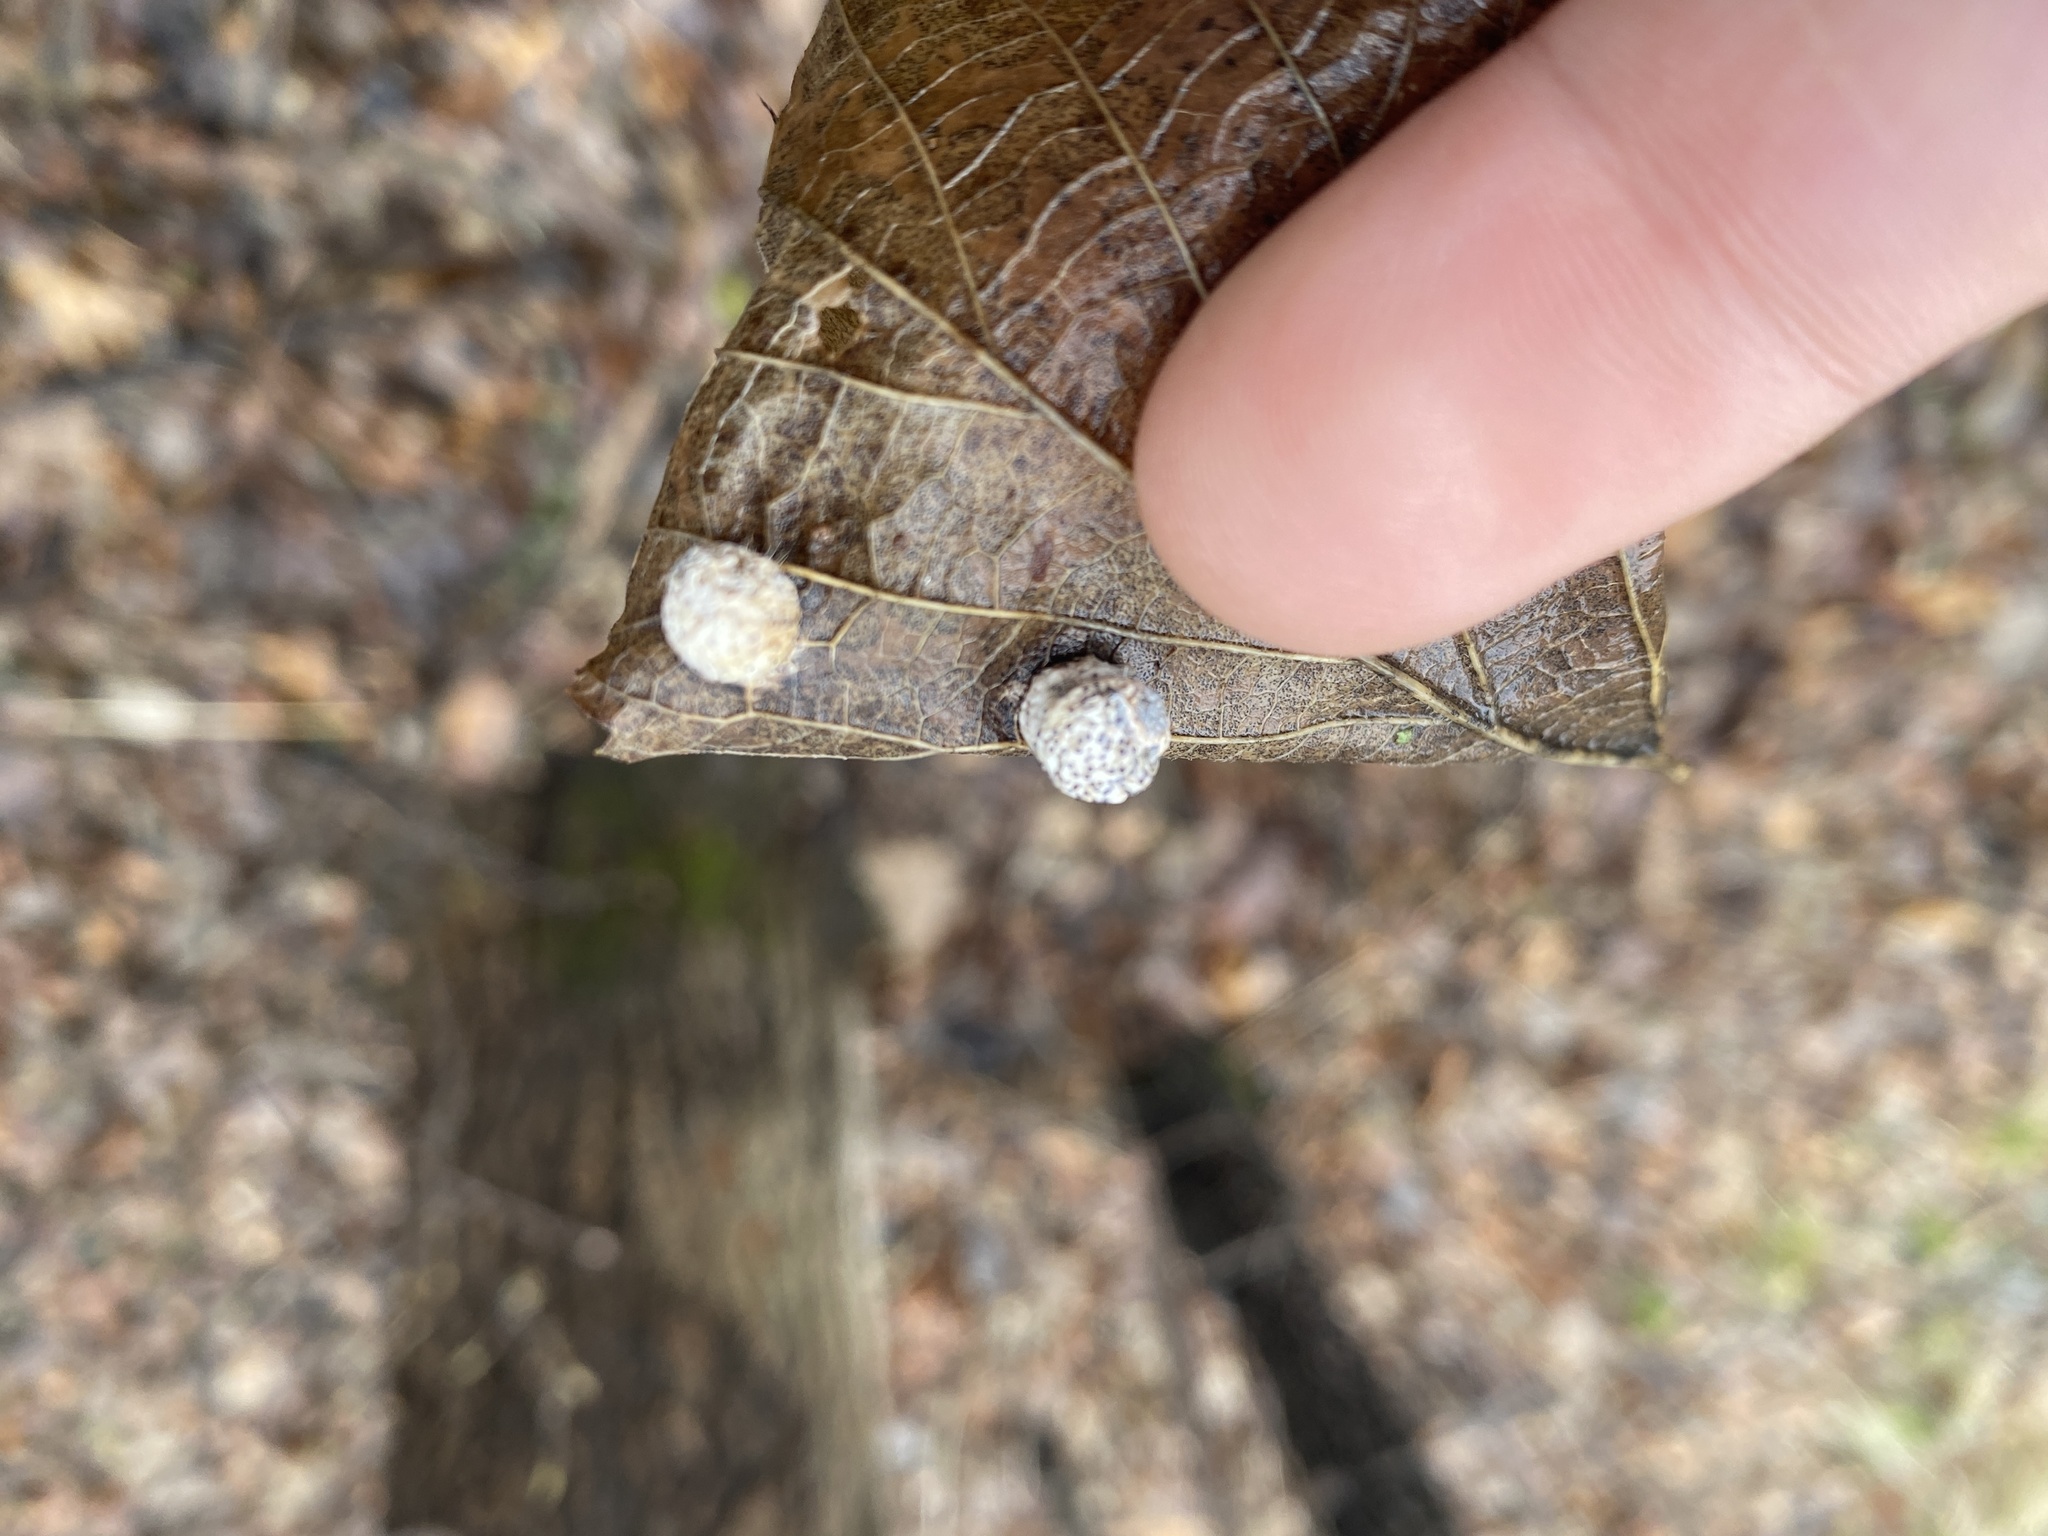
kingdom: Animalia
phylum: Arthropoda
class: Insecta
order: Hemiptera
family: Aphalaridae
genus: Pachypsylla
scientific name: Pachypsylla celtidismamma
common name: Hackberry nipplegall psyllid
